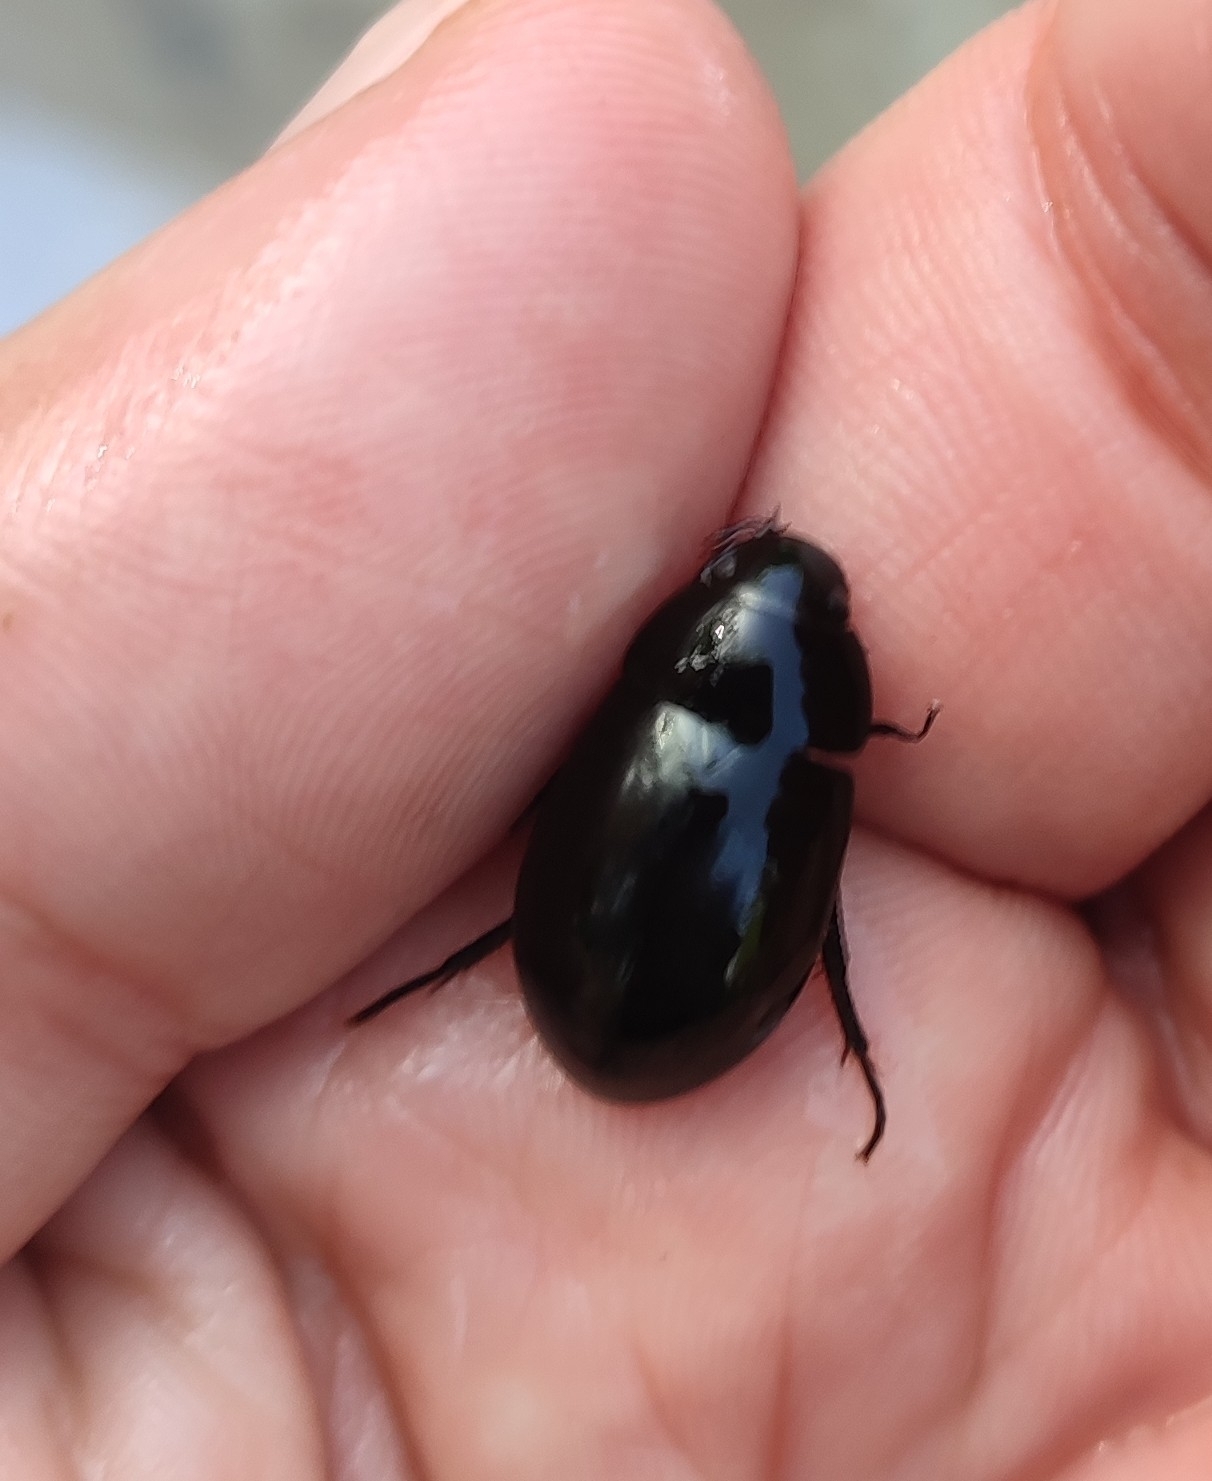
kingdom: Animalia
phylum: Arthropoda
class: Insecta
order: Coleoptera
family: Hydrophilidae
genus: Hydrochara
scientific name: Hydrochara caraboides
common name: Lesser silver water beetle
